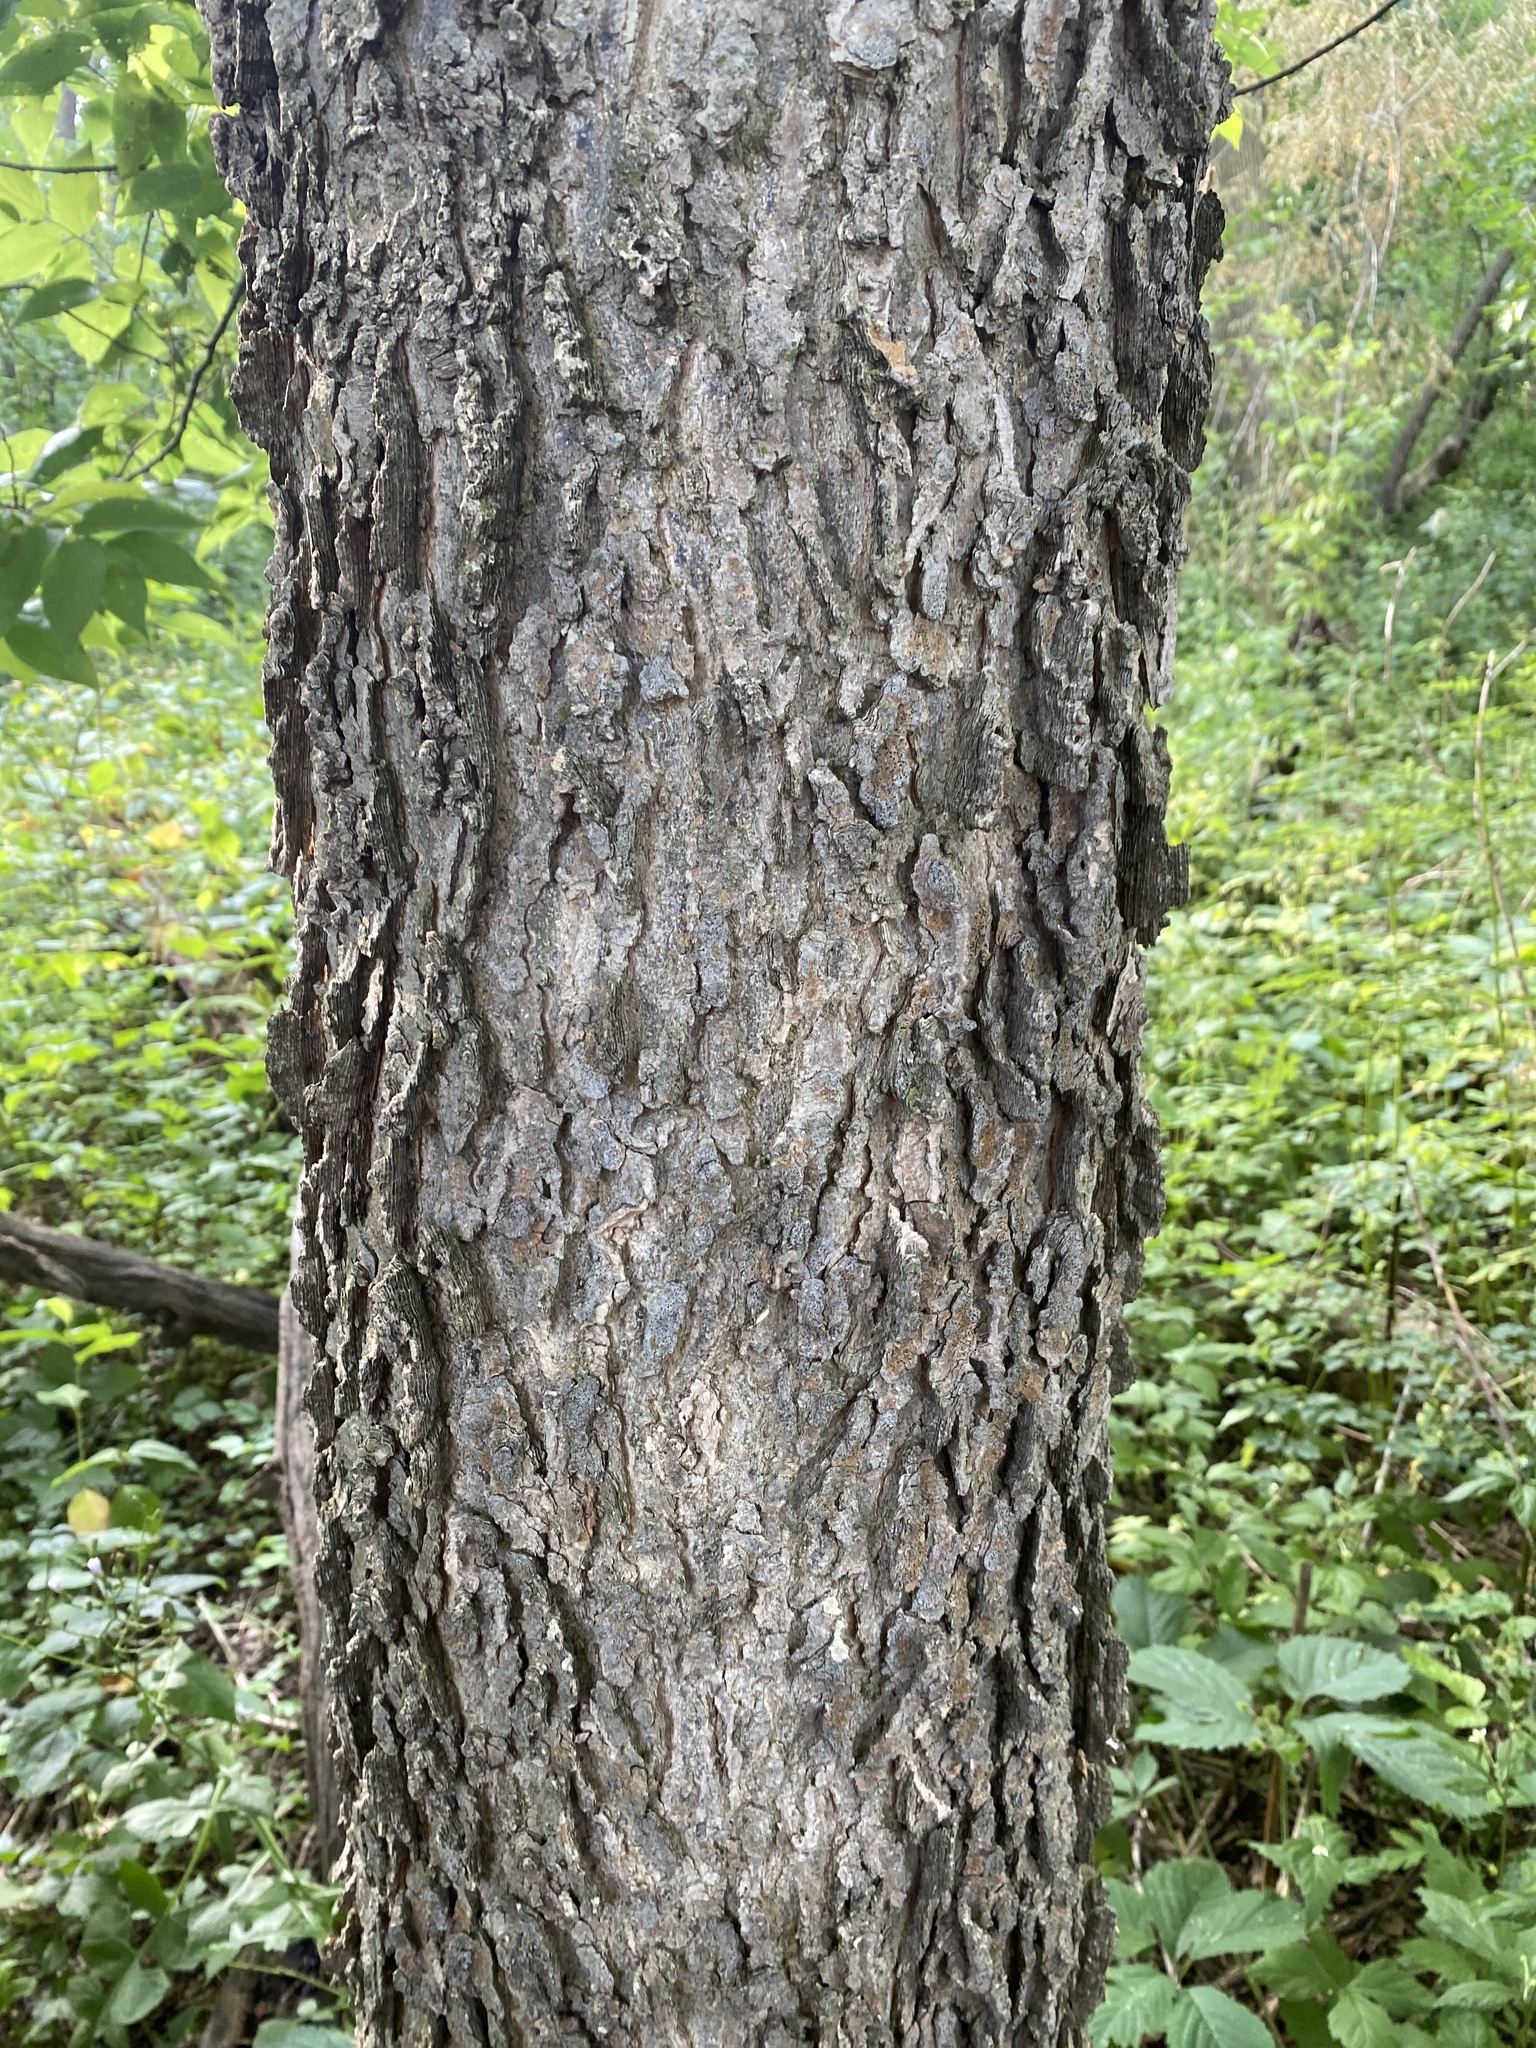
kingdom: Plantae
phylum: Tracheophyta
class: Magnoliopsida
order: Rosales
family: Cannabaceae
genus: Celtis
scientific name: Celtis occidentalis
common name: Common hackberry
